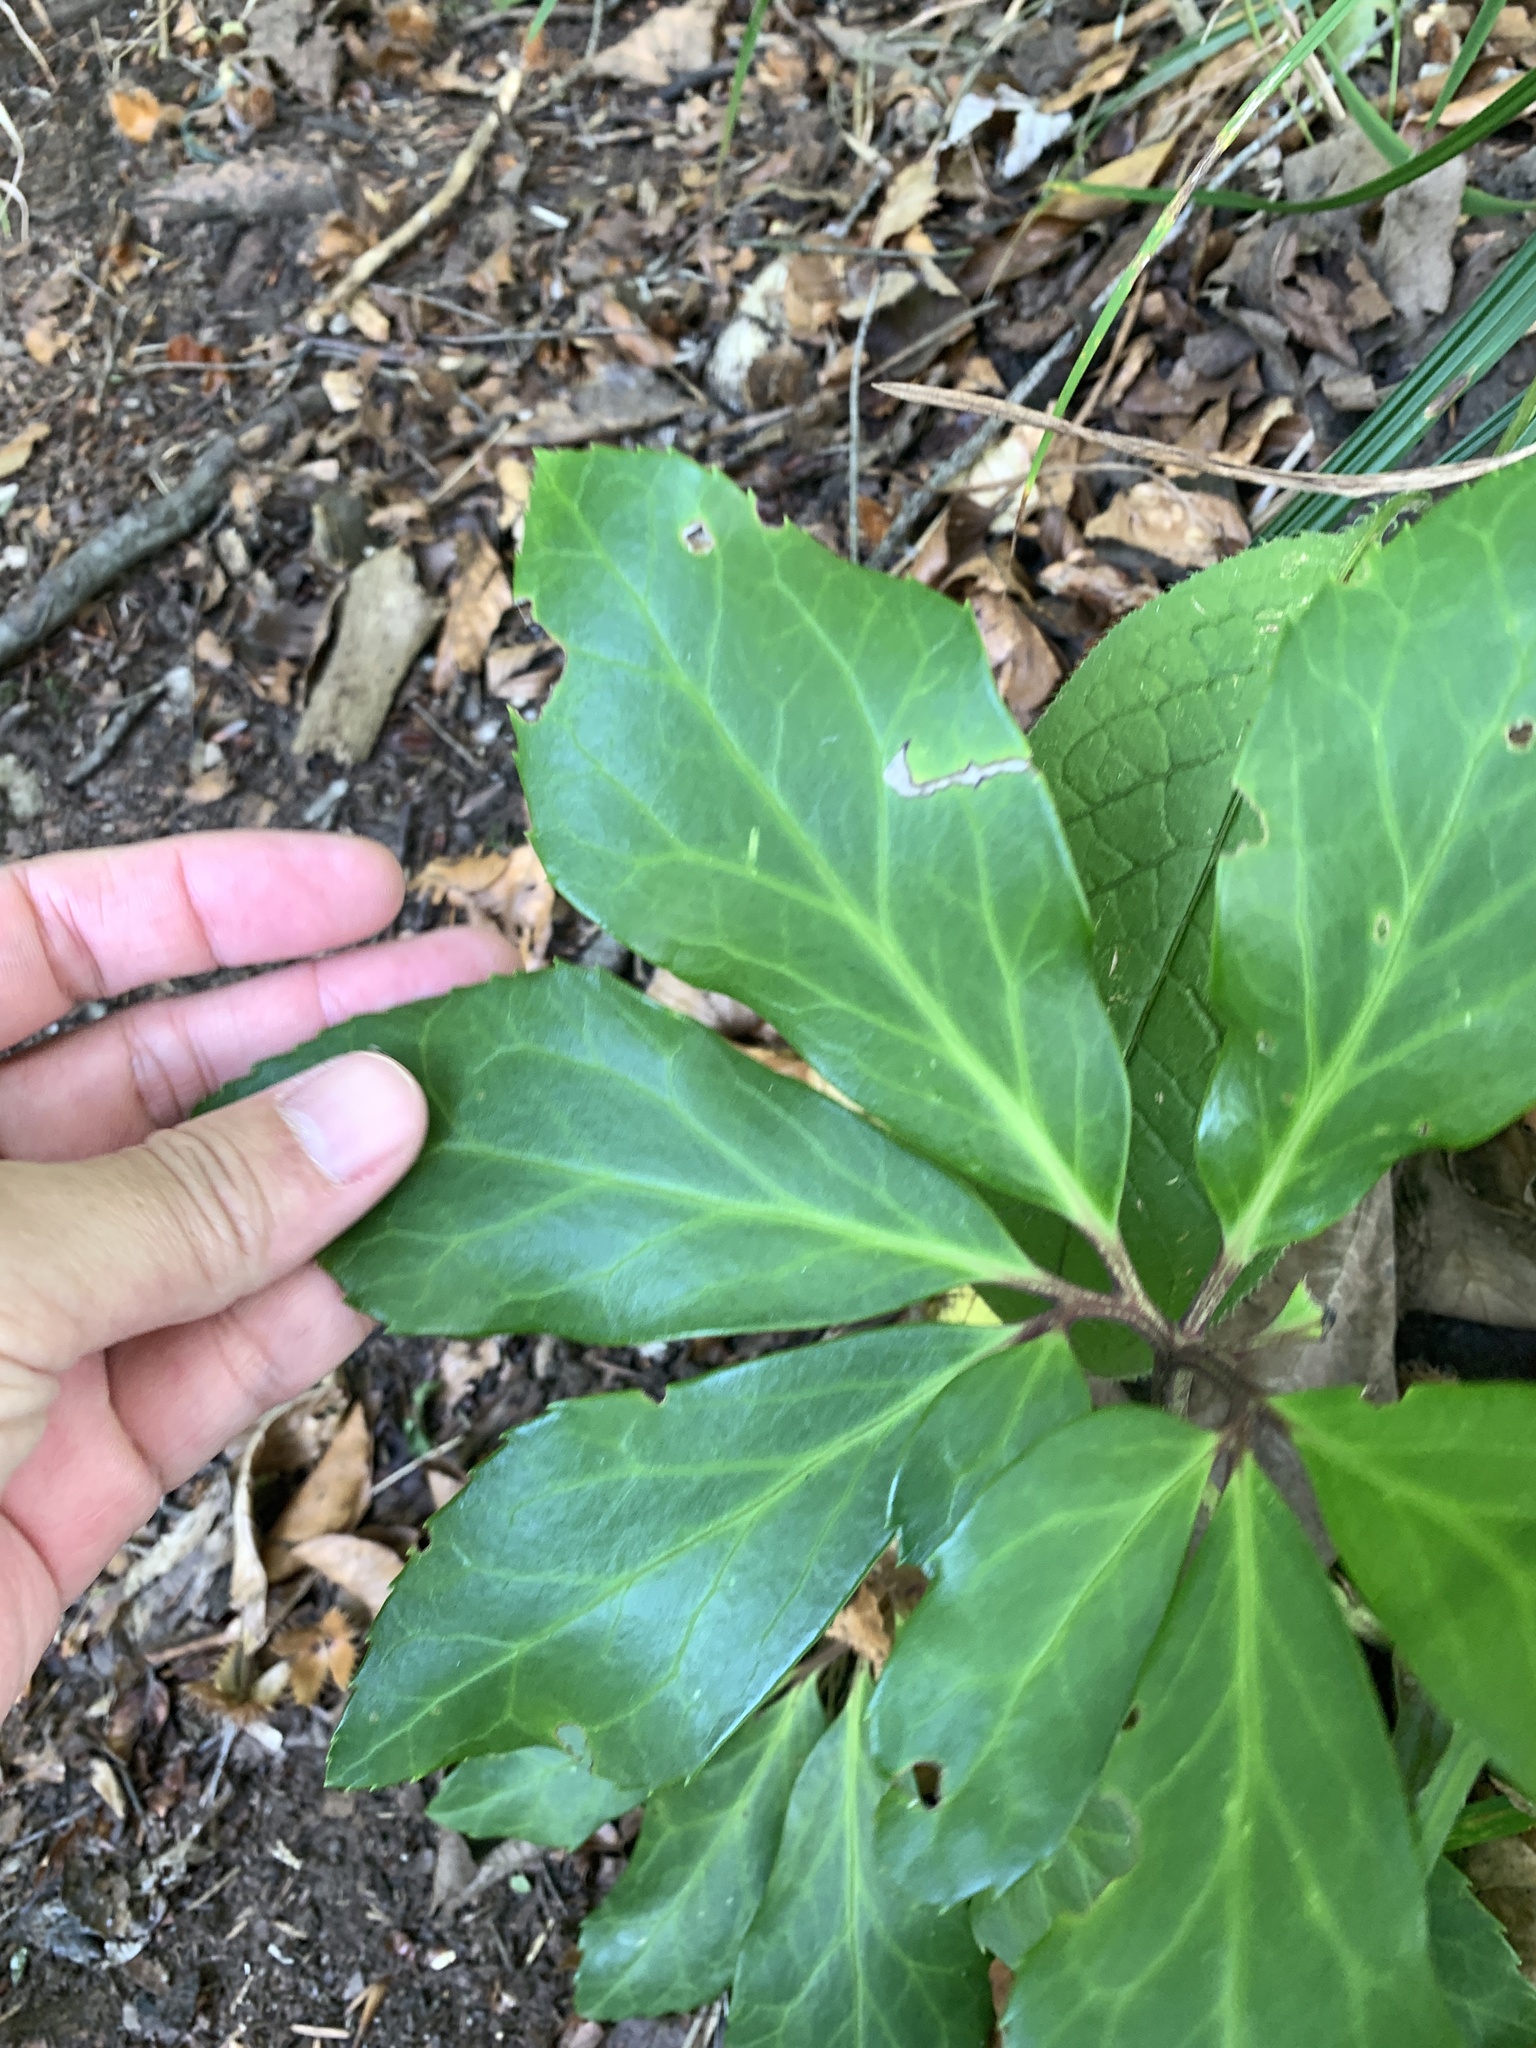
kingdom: Plantae
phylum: Tracheophyta
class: Magnoliopsida
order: Ranunculales
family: Ranunculaceae
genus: Helleborus
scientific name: Helleborus niger
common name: Black hellebore
